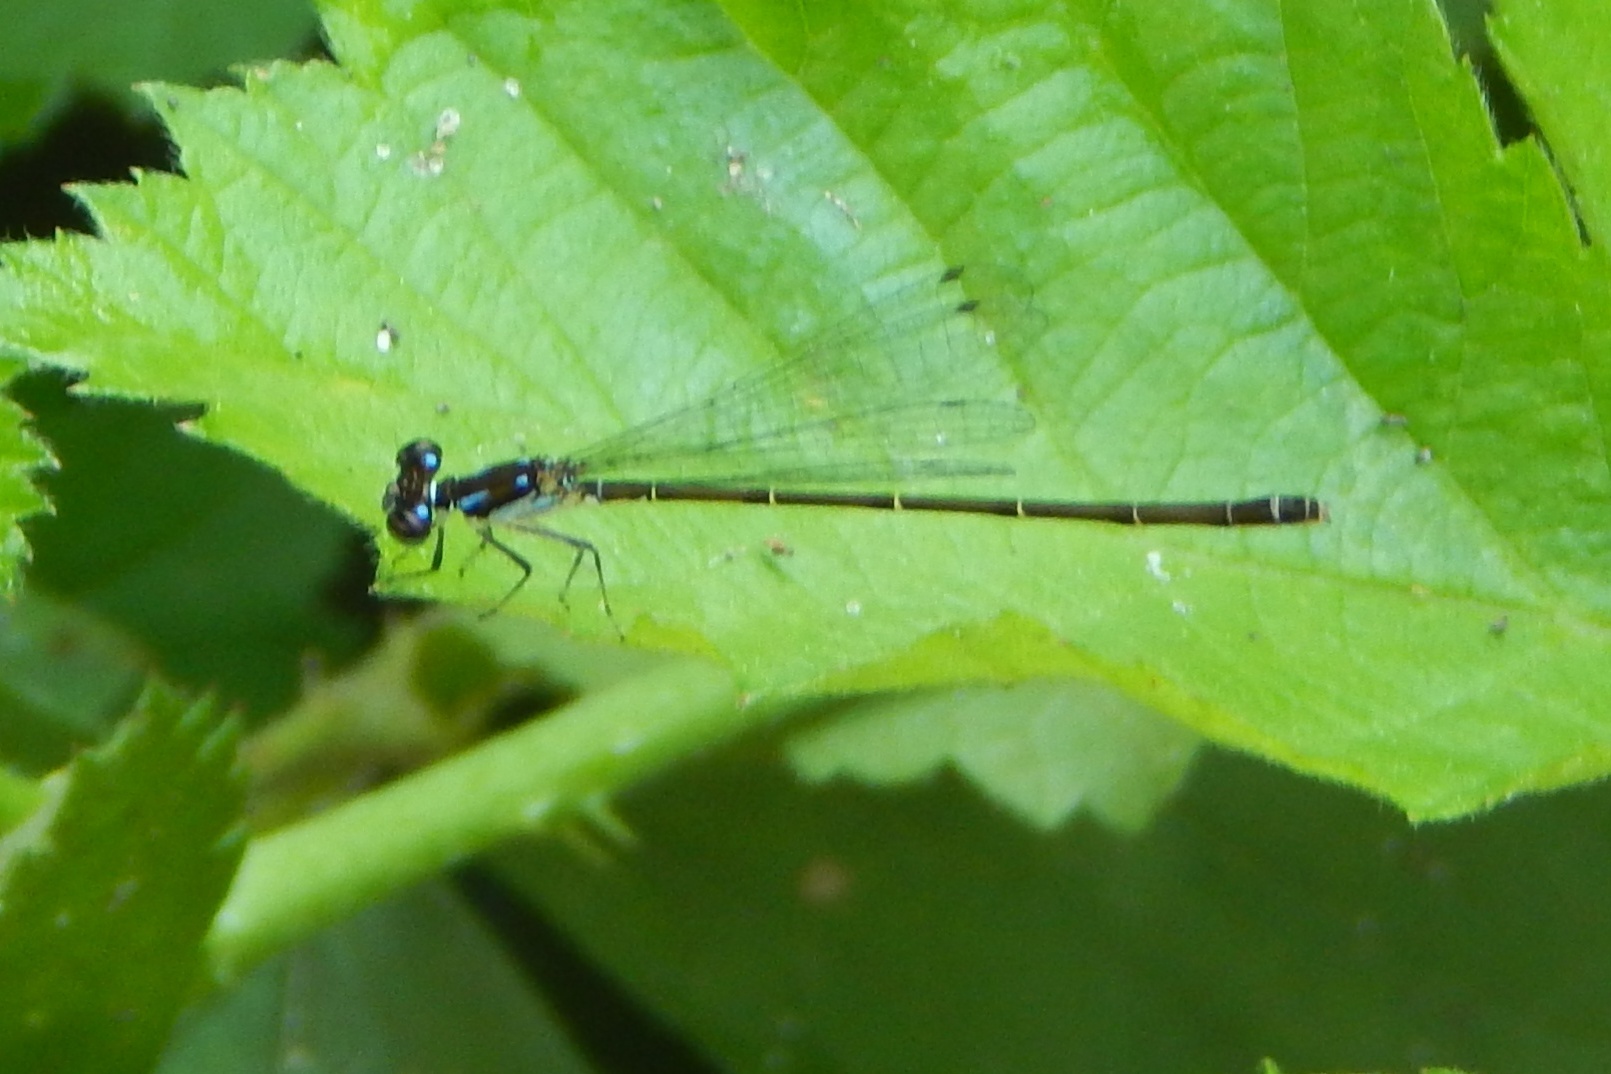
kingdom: Animalia
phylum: Arthropoda
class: Insecta
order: Odonata
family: Coenagrionidae
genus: Ischnura
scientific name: Ischnura posita
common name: Fragile forktail
